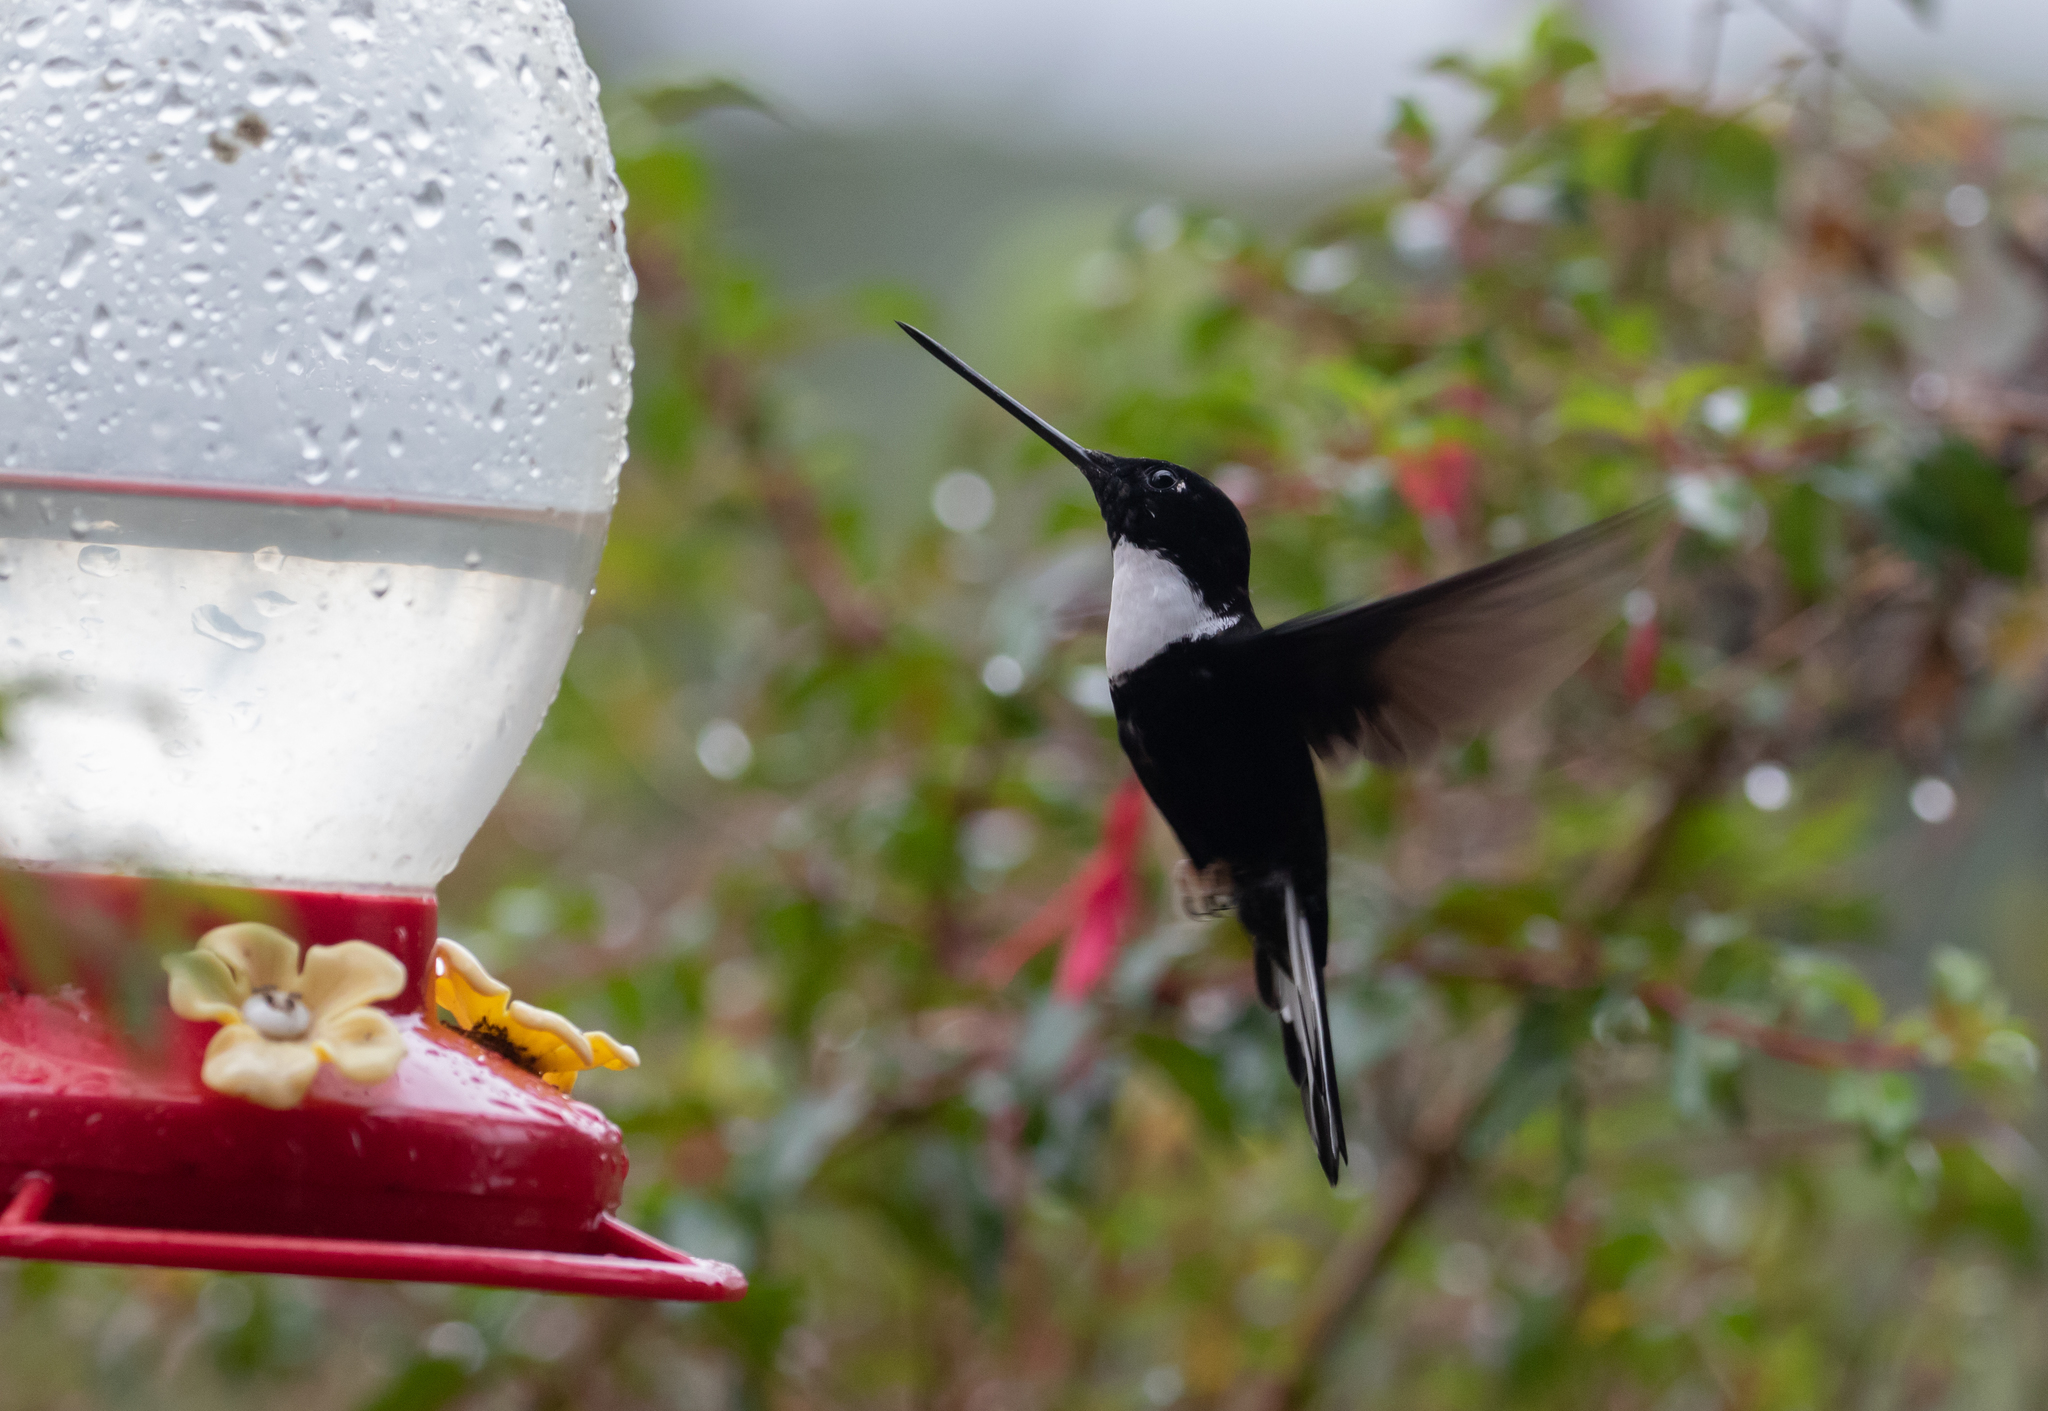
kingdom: Animalia
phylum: Chordata
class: Aves
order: Apodiformes
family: Trochilidae
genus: Coeligena
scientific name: Coeligena torquata
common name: Collared inca
